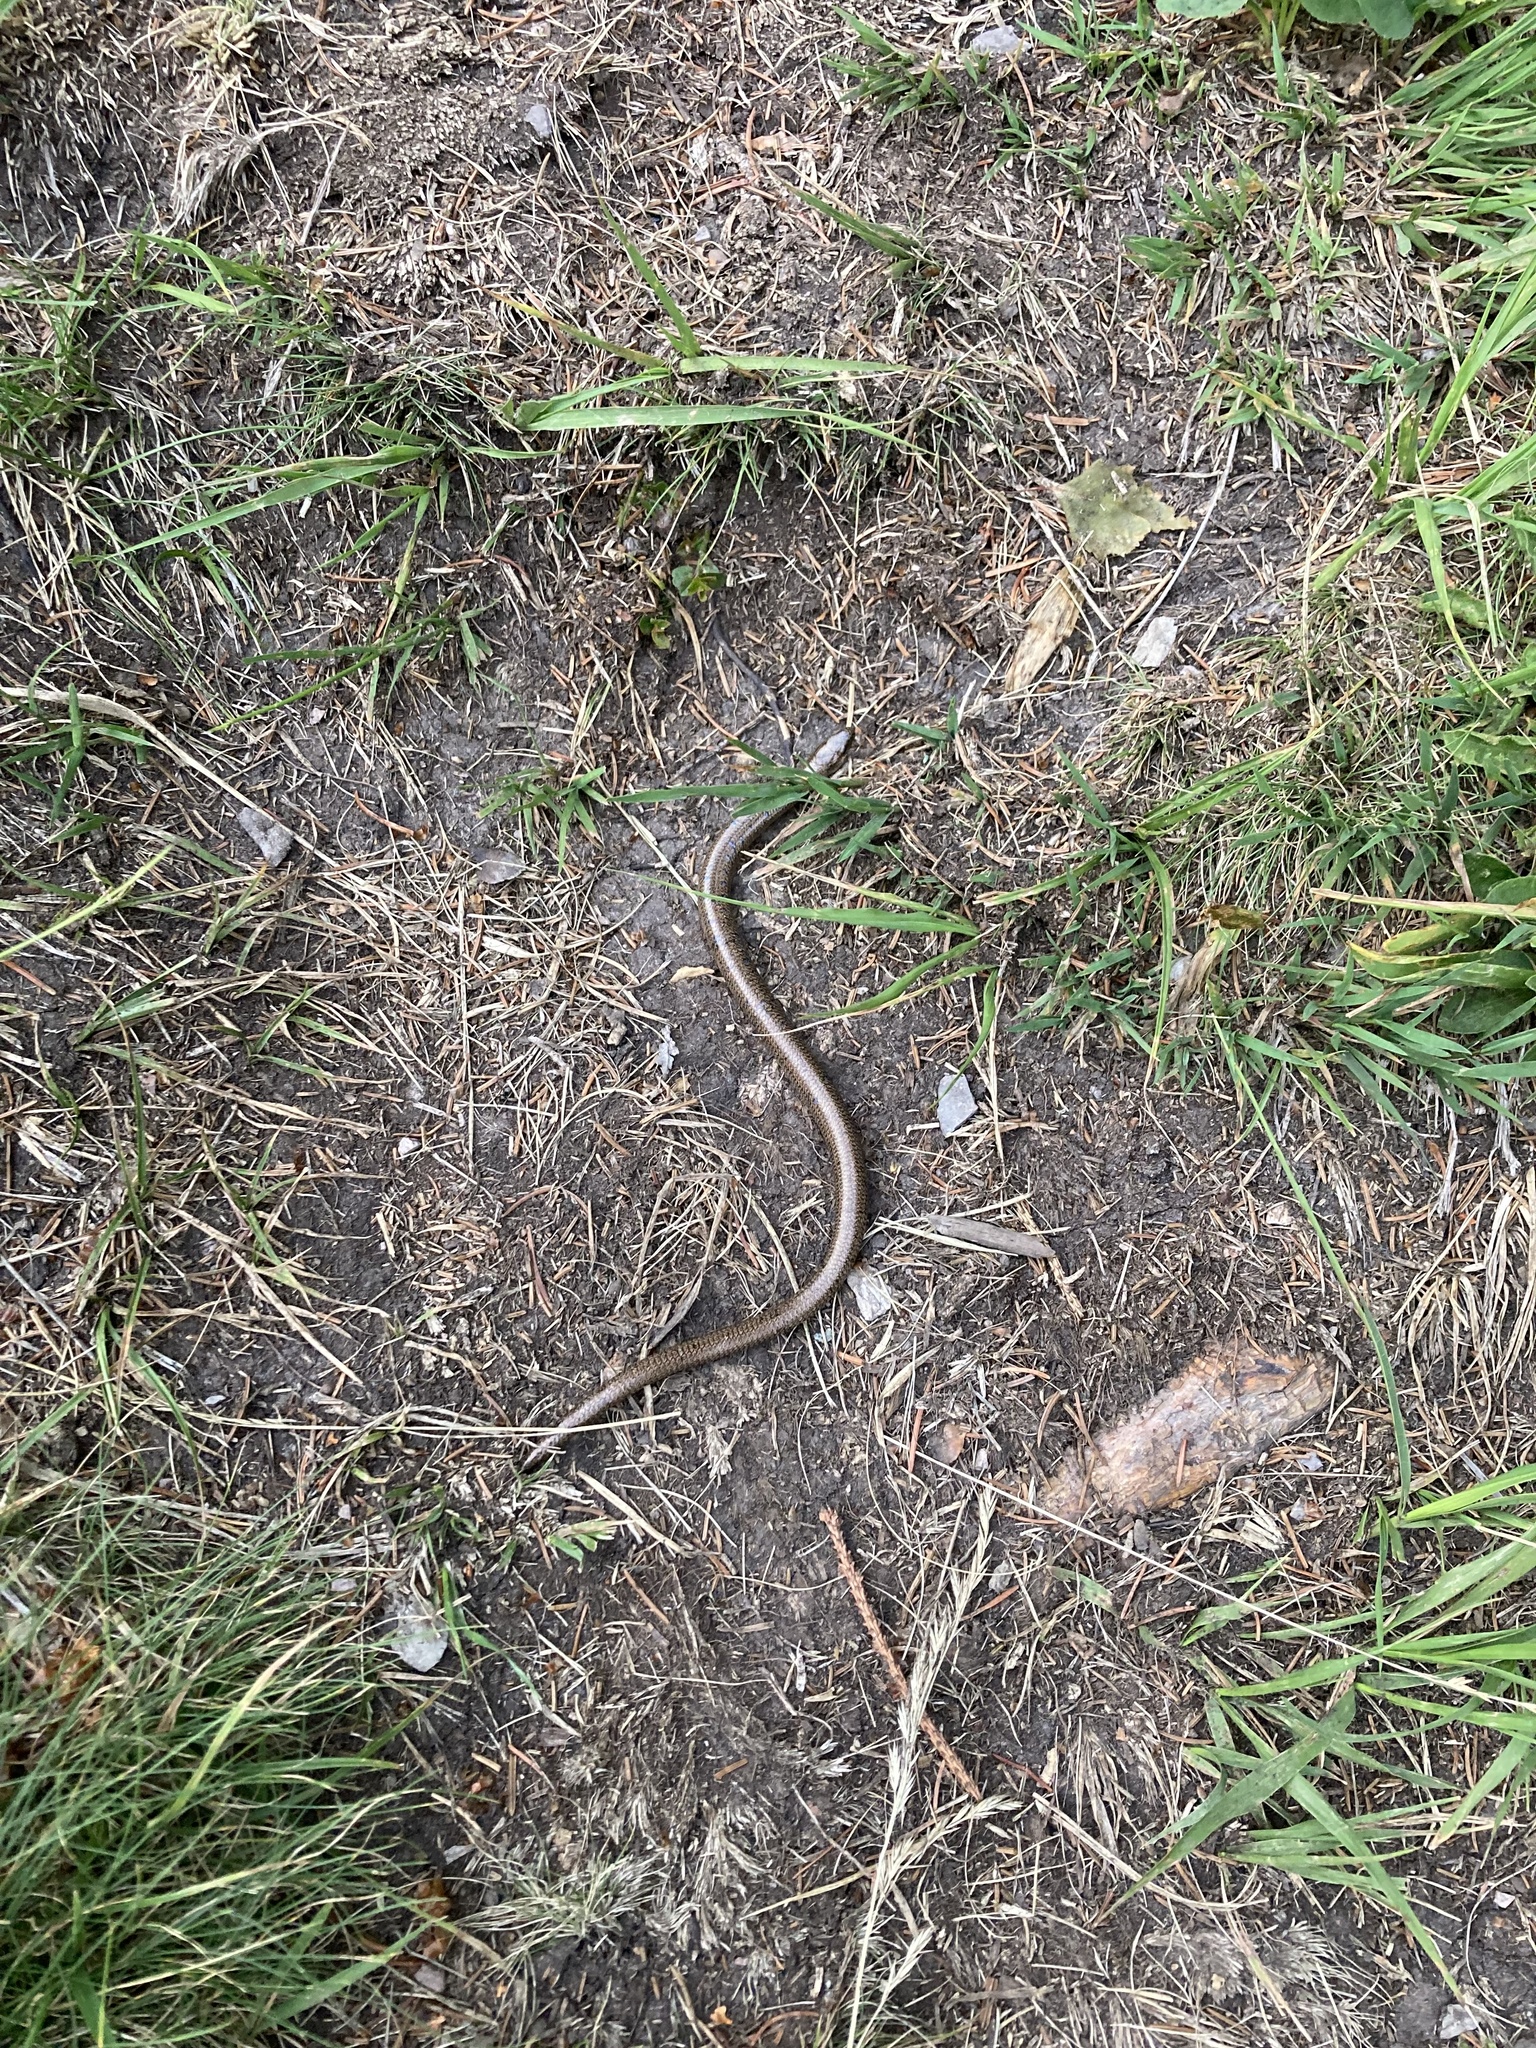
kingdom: Animalia
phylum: Chordata
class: Squamata
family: Anguidae
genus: Anguis
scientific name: Anguis veronensis
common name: Italian slow worm
